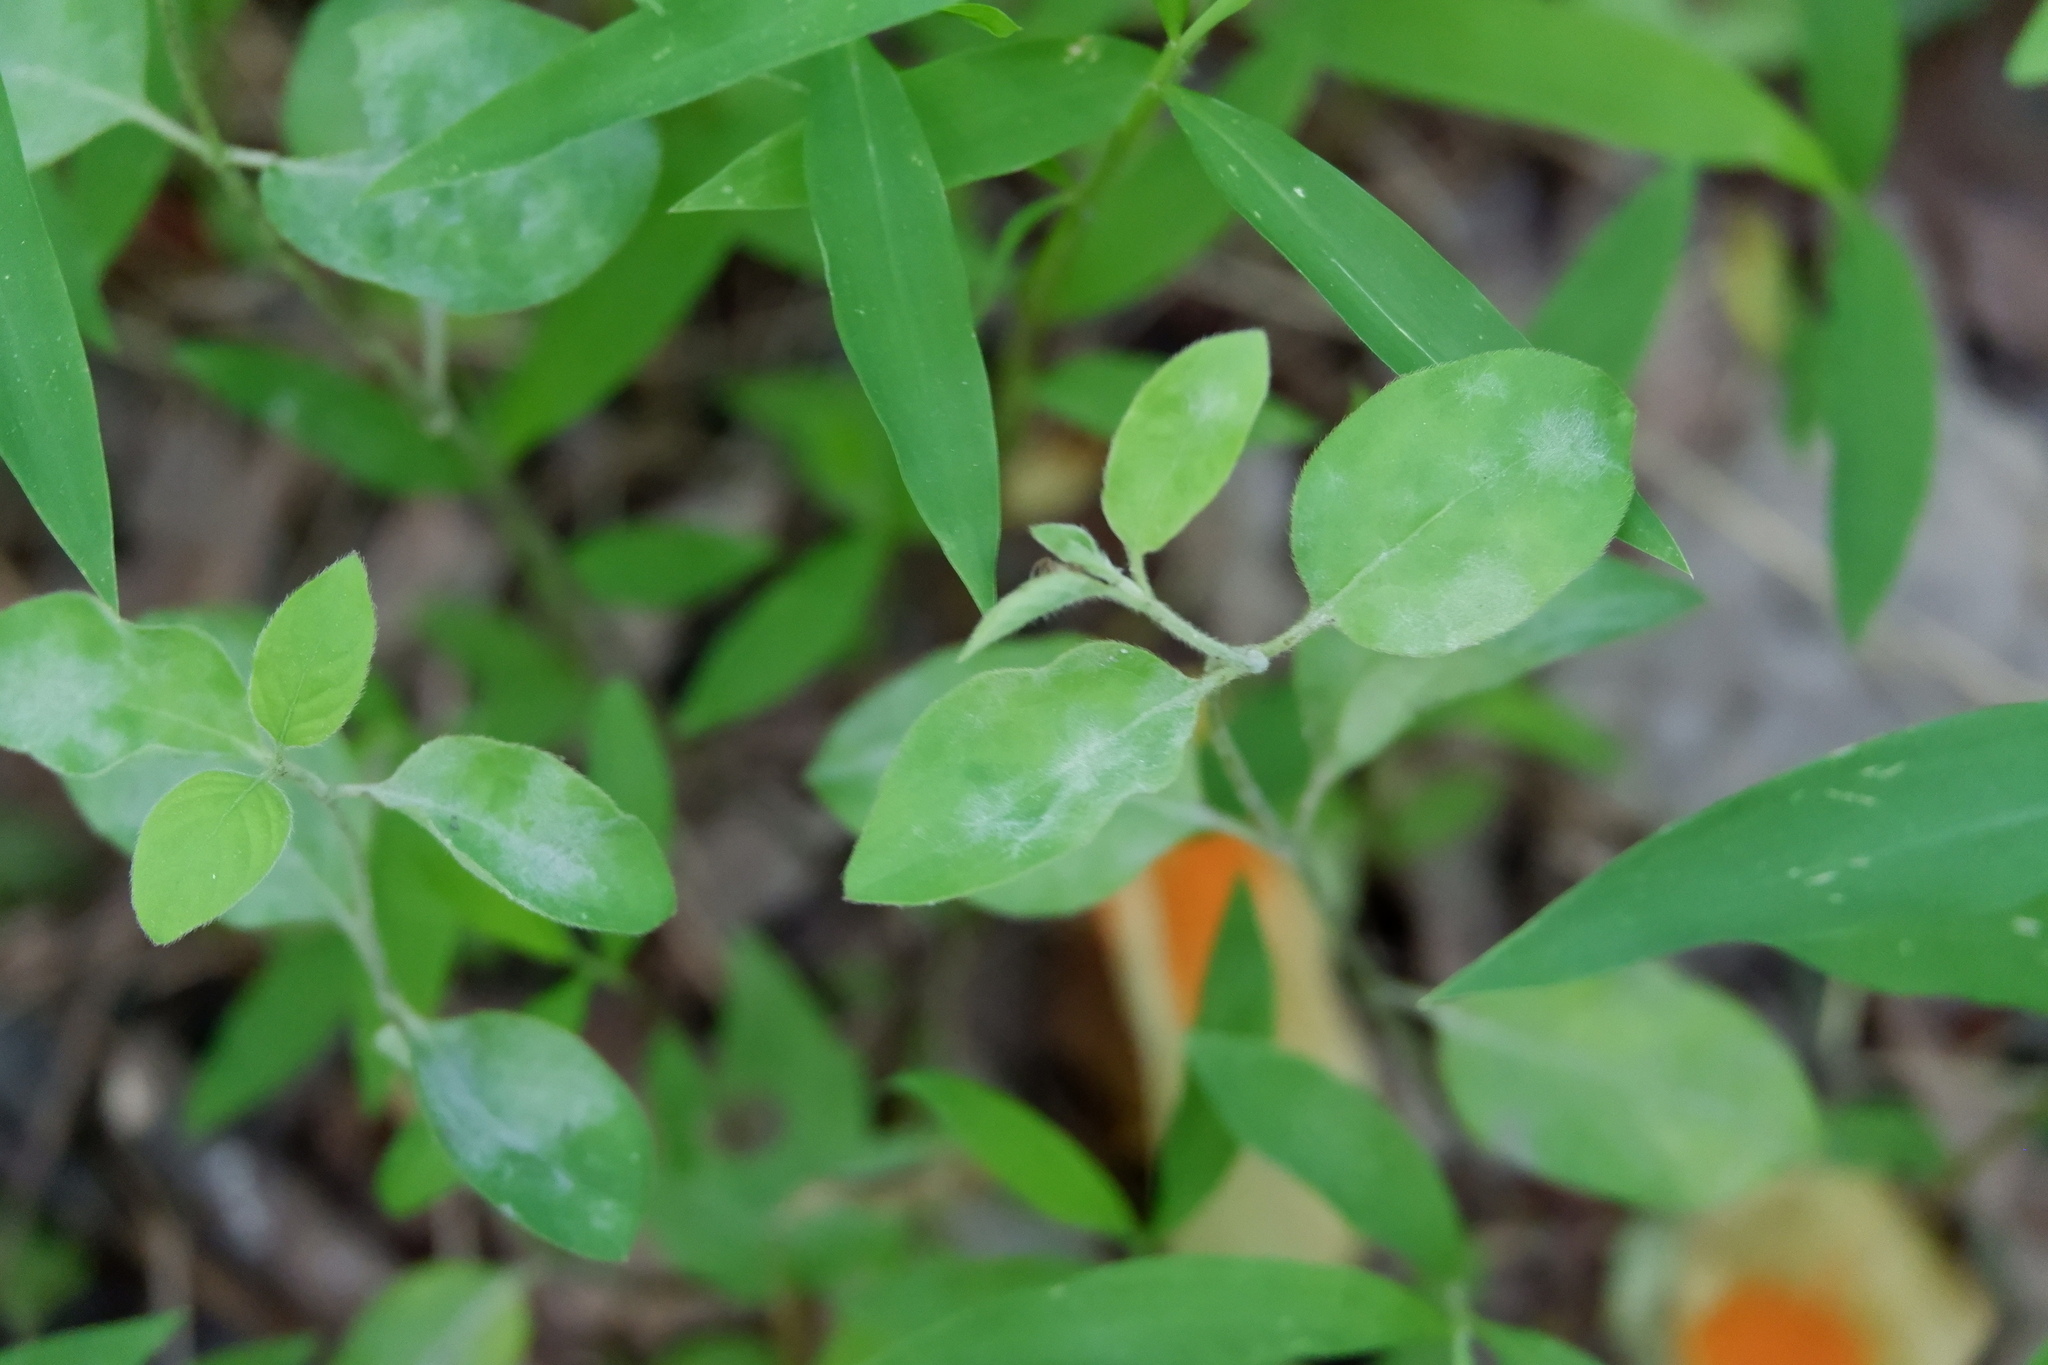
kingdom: Fungi
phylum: Ascomycota
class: Leotiomycetes
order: Helotiales
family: Erysiphaceae
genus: Erysiphe
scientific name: Erysiphe lonicerae
